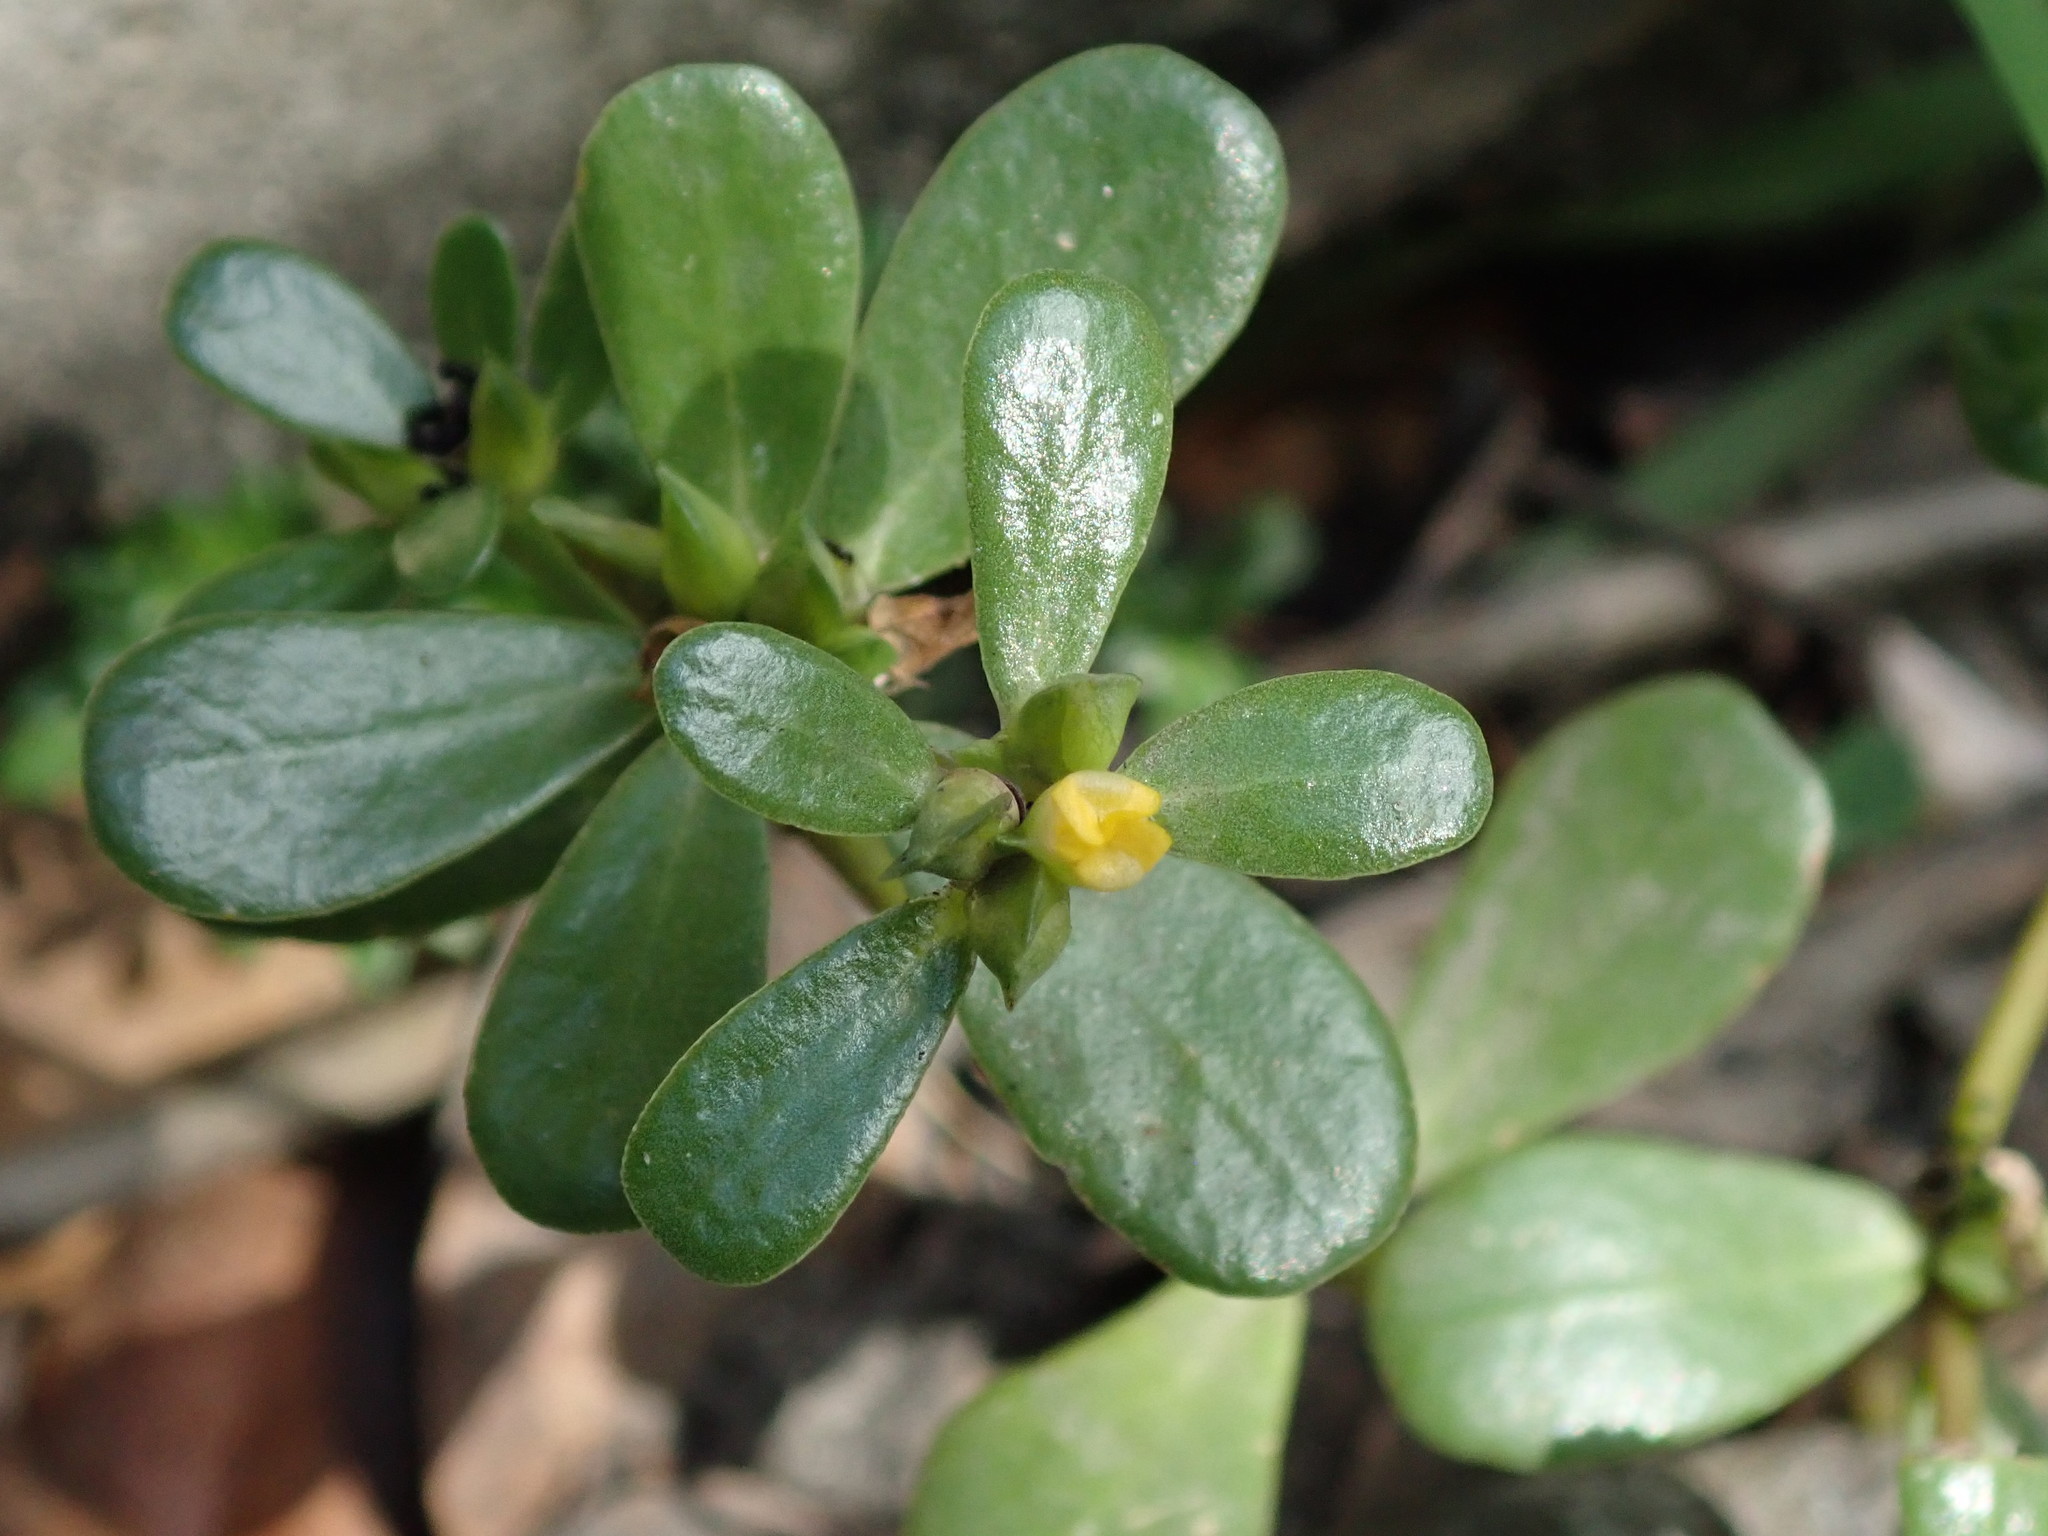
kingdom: Plantae
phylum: Tracheophyta
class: Magnoliopsida
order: Caryophyllales
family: Portulacaceae
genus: Portulaca
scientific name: Portulaca oleracea
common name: Common purslane
